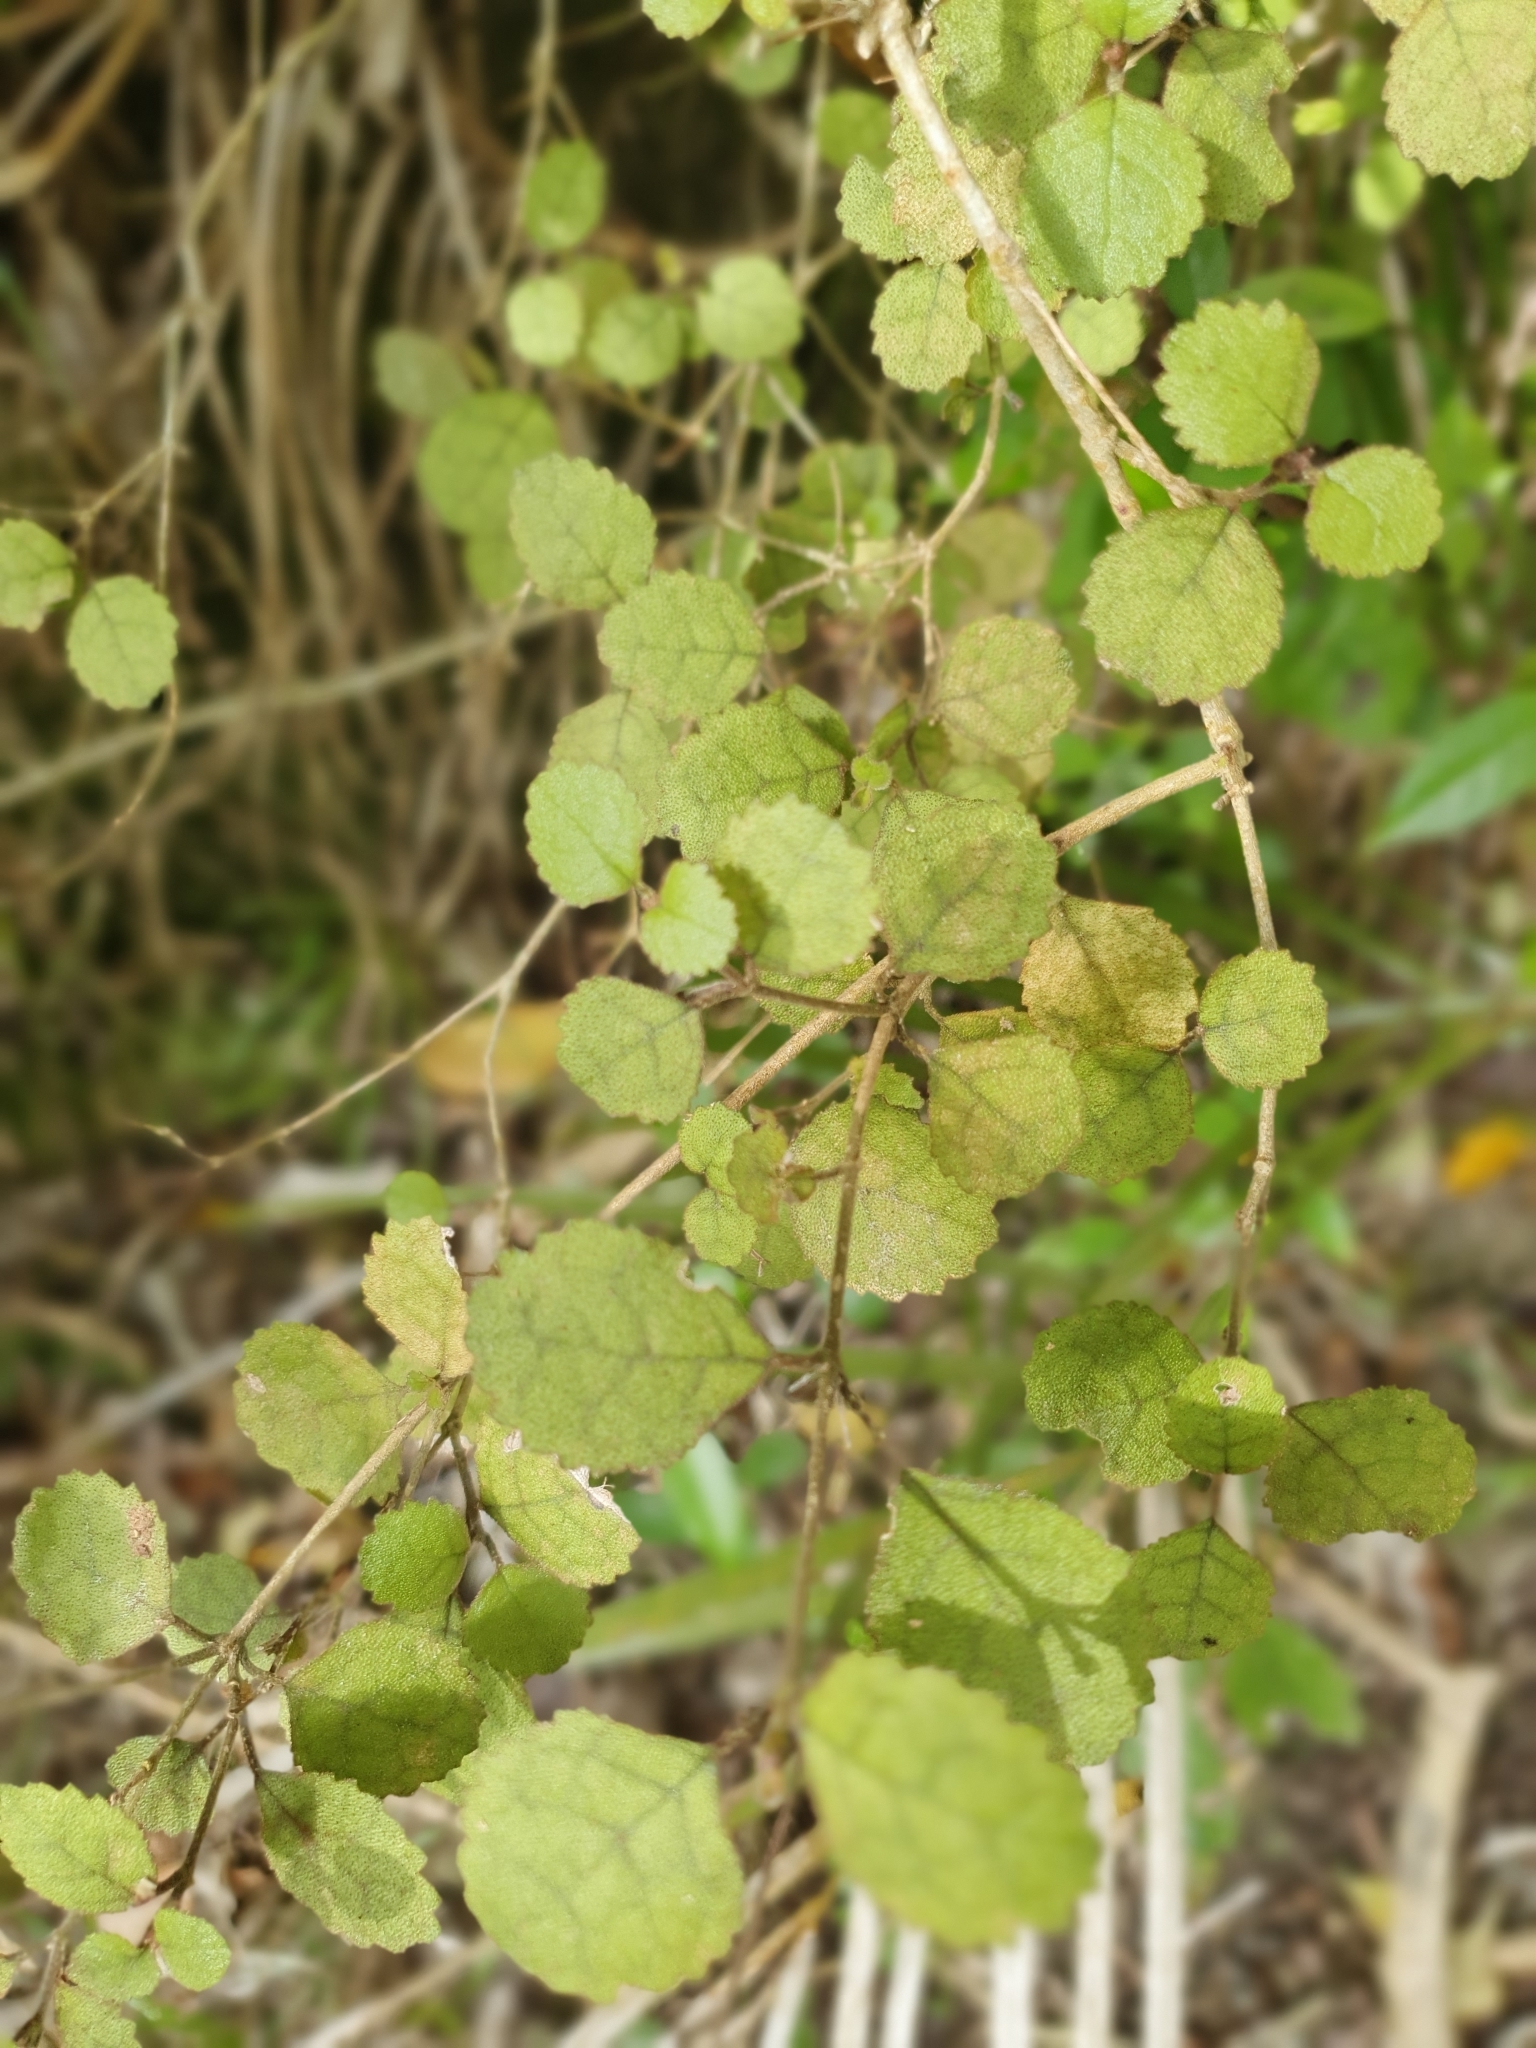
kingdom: Plantae
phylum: Tracheophyta
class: Magnoliopsida
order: Lamiales
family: Gesneriaceae
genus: Rhabdothamnus
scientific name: Rhabdothamnus solandri
